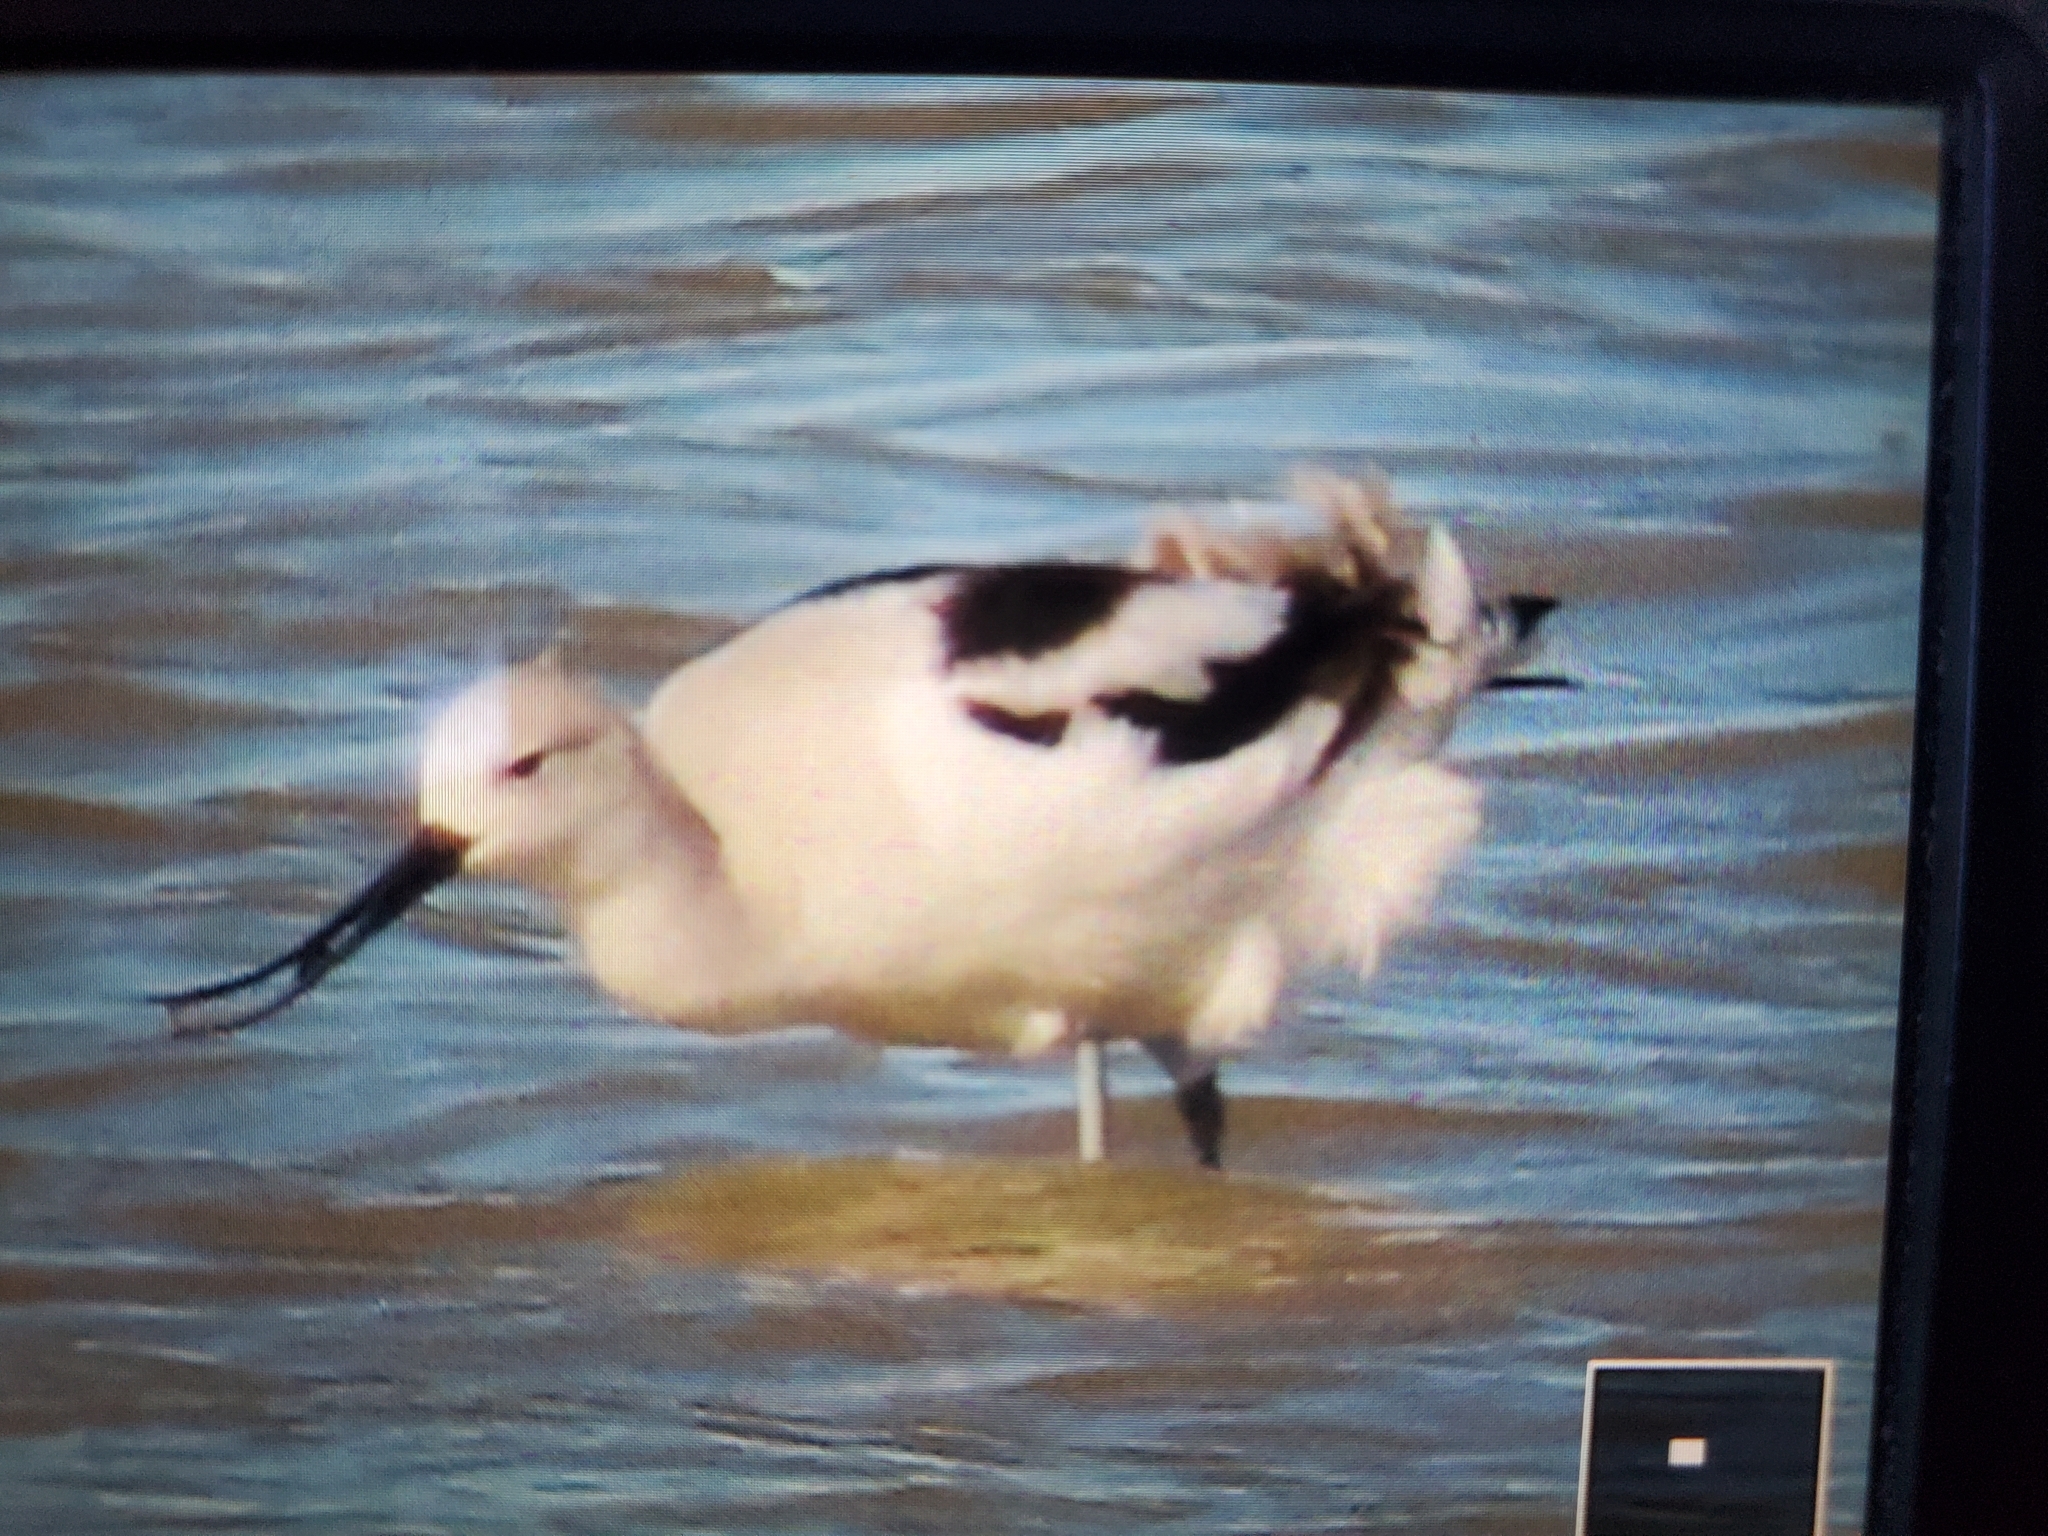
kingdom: Animalia
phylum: Chordata
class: Aves
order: Charadriiformes
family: Recurvirostridae
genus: Recurvirostra
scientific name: Recurvirostra americana
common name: American avocet
